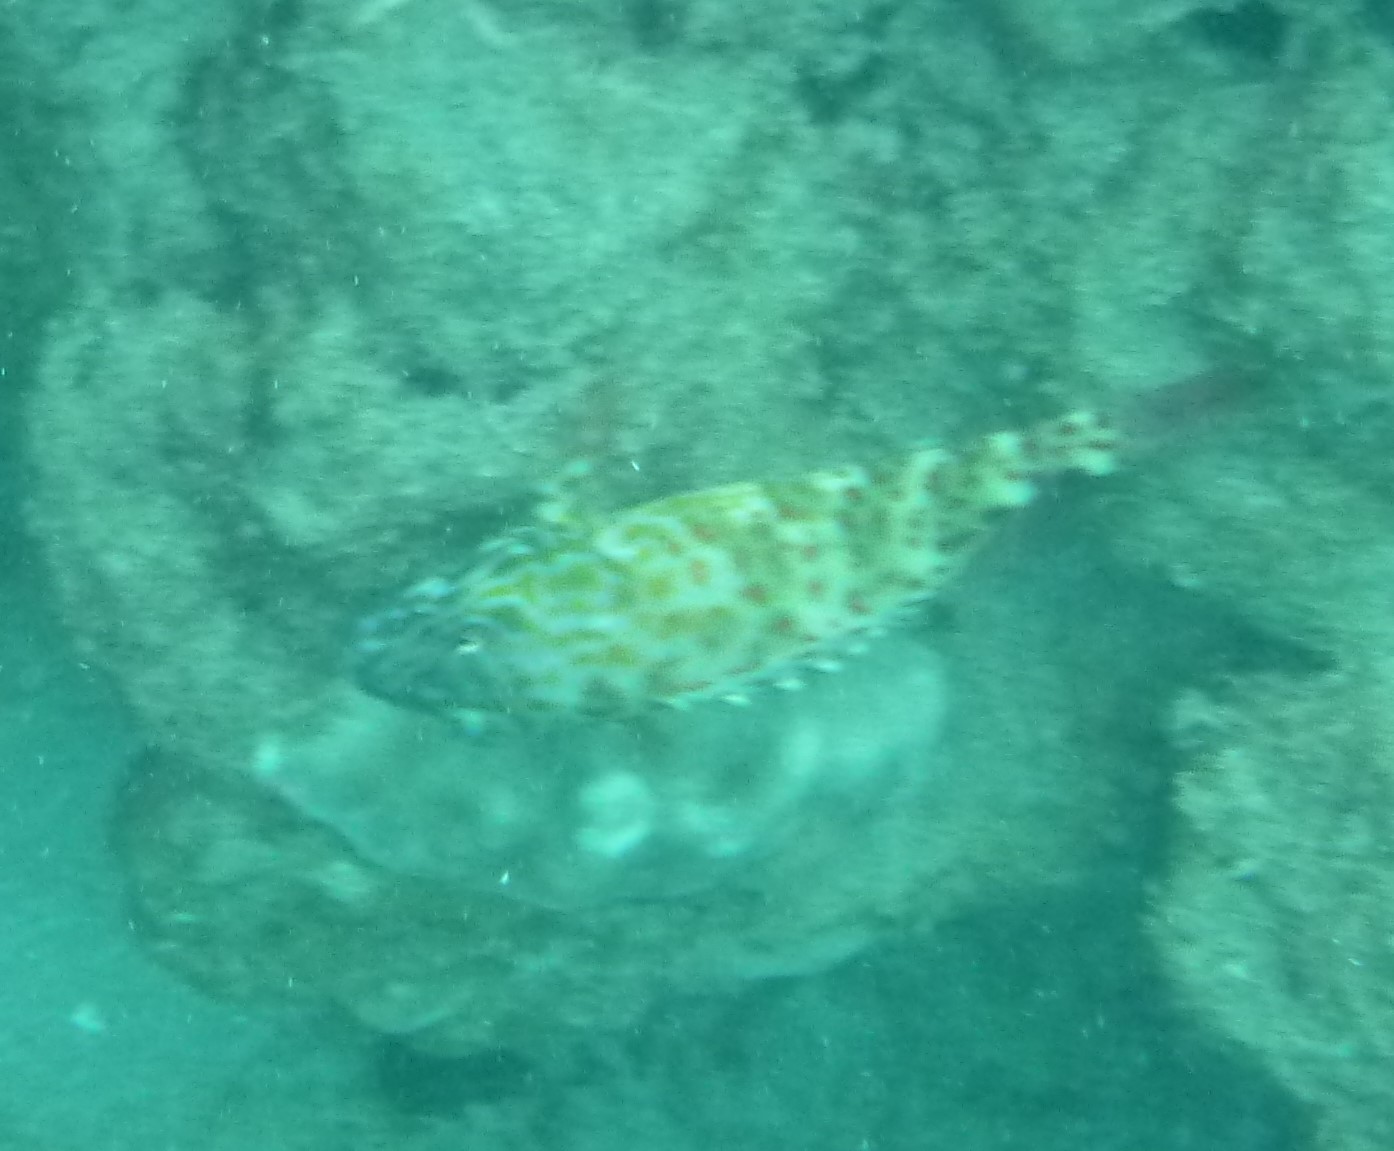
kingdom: Animalia
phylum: Chordata
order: Perciformes
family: Cirrhitidae
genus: Cirrhitus
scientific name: Cirrhitus pinnulatus
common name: Stocky hawkfish
